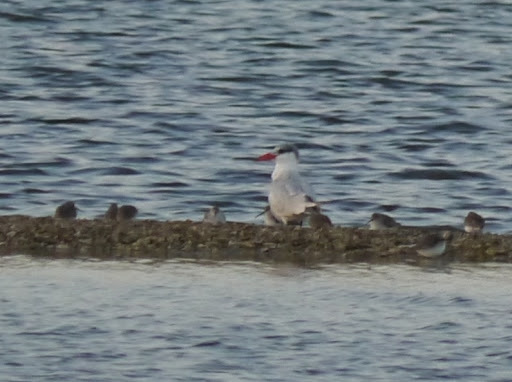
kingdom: Animalia
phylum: Chordata
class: Aves
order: Charadriiformes
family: Laridae
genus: Hydroprogne
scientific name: Hydroprogne caspia
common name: Caspian tern
